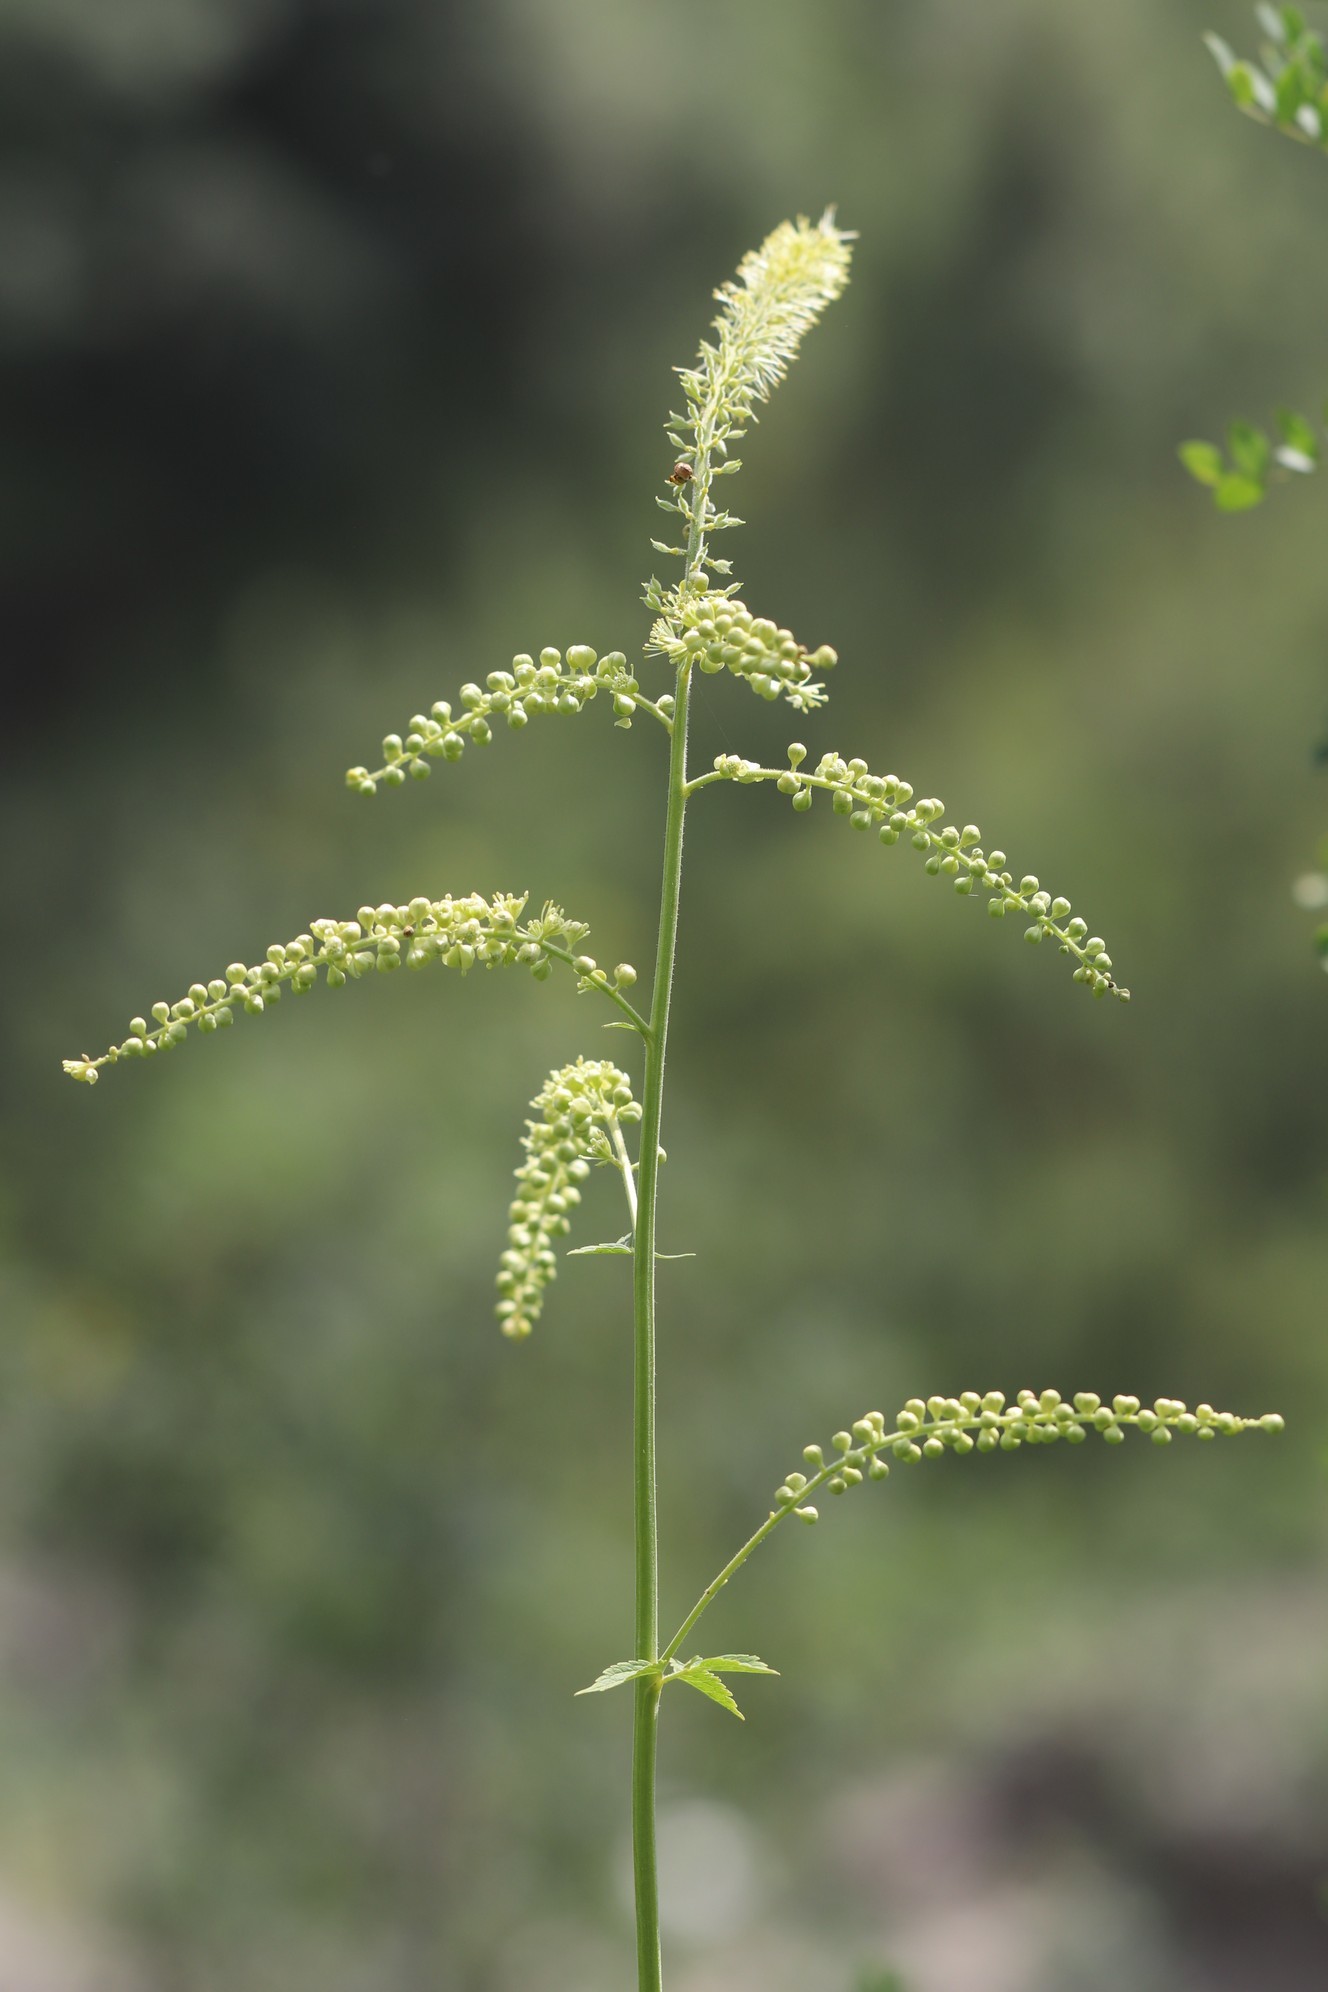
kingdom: Plantae
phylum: Tracheophyta
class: Magnoliopsida
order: Ranunculales
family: Ranunculaceae
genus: Actaea
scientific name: Actaea cimicifuga
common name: Chinese cimicifuga
